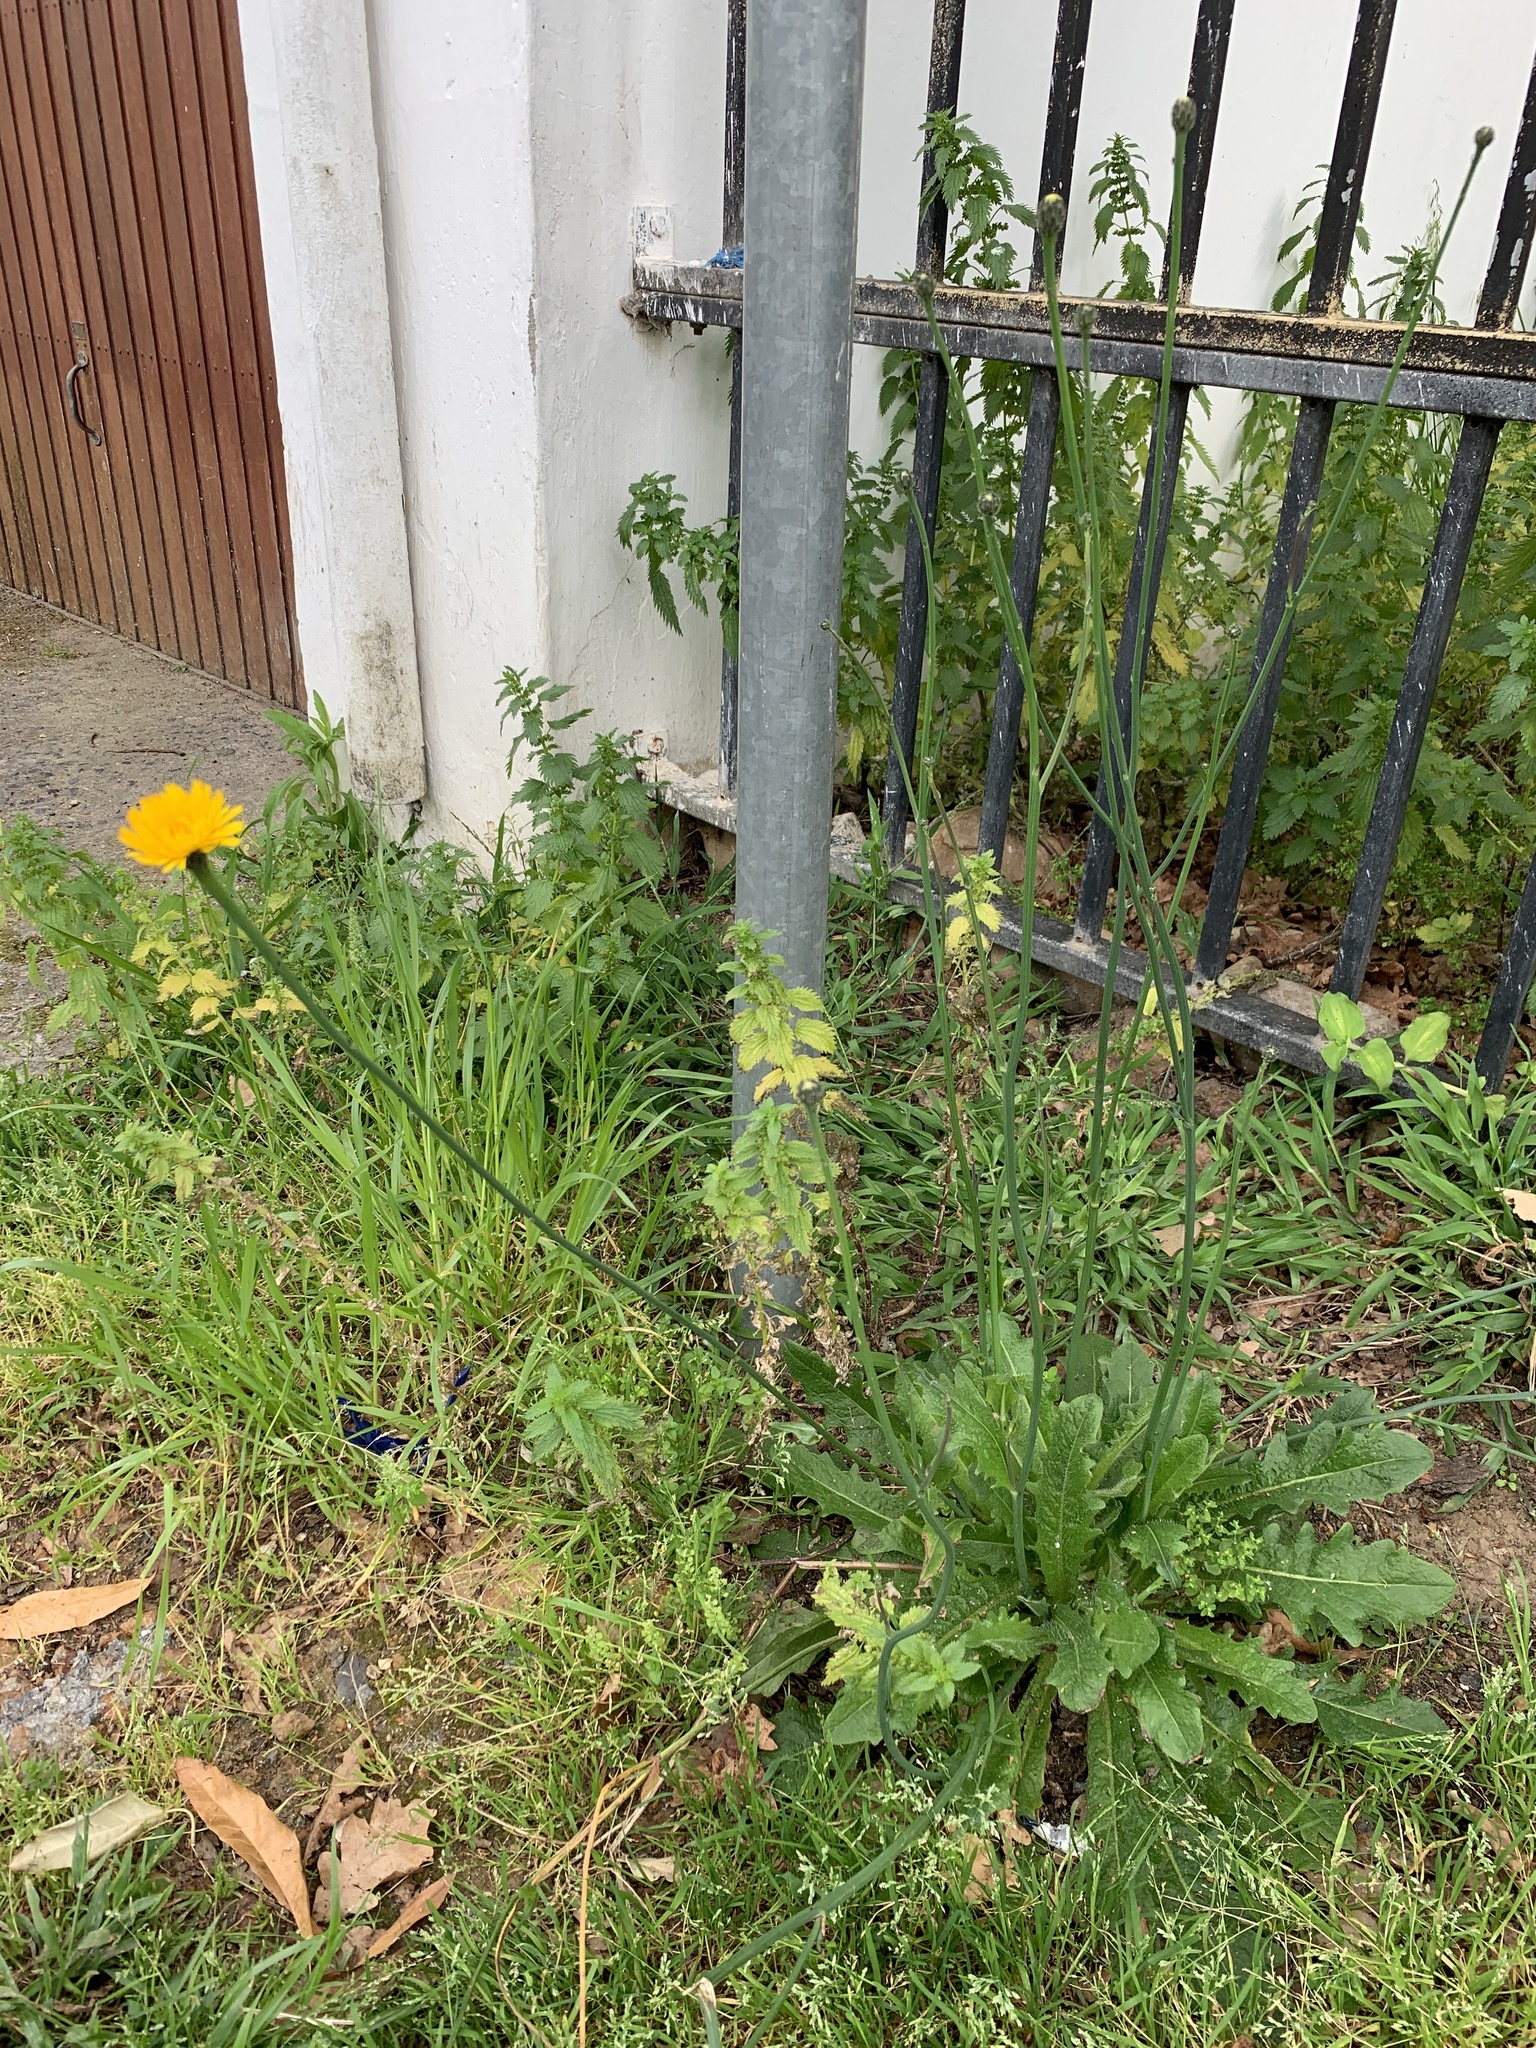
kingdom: Plantae
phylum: Tracheophyta
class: Magnoliopsida
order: Asterales
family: Asteraceae
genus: Hypochaeris
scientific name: Hypochaeris radicata
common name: Flatweed
